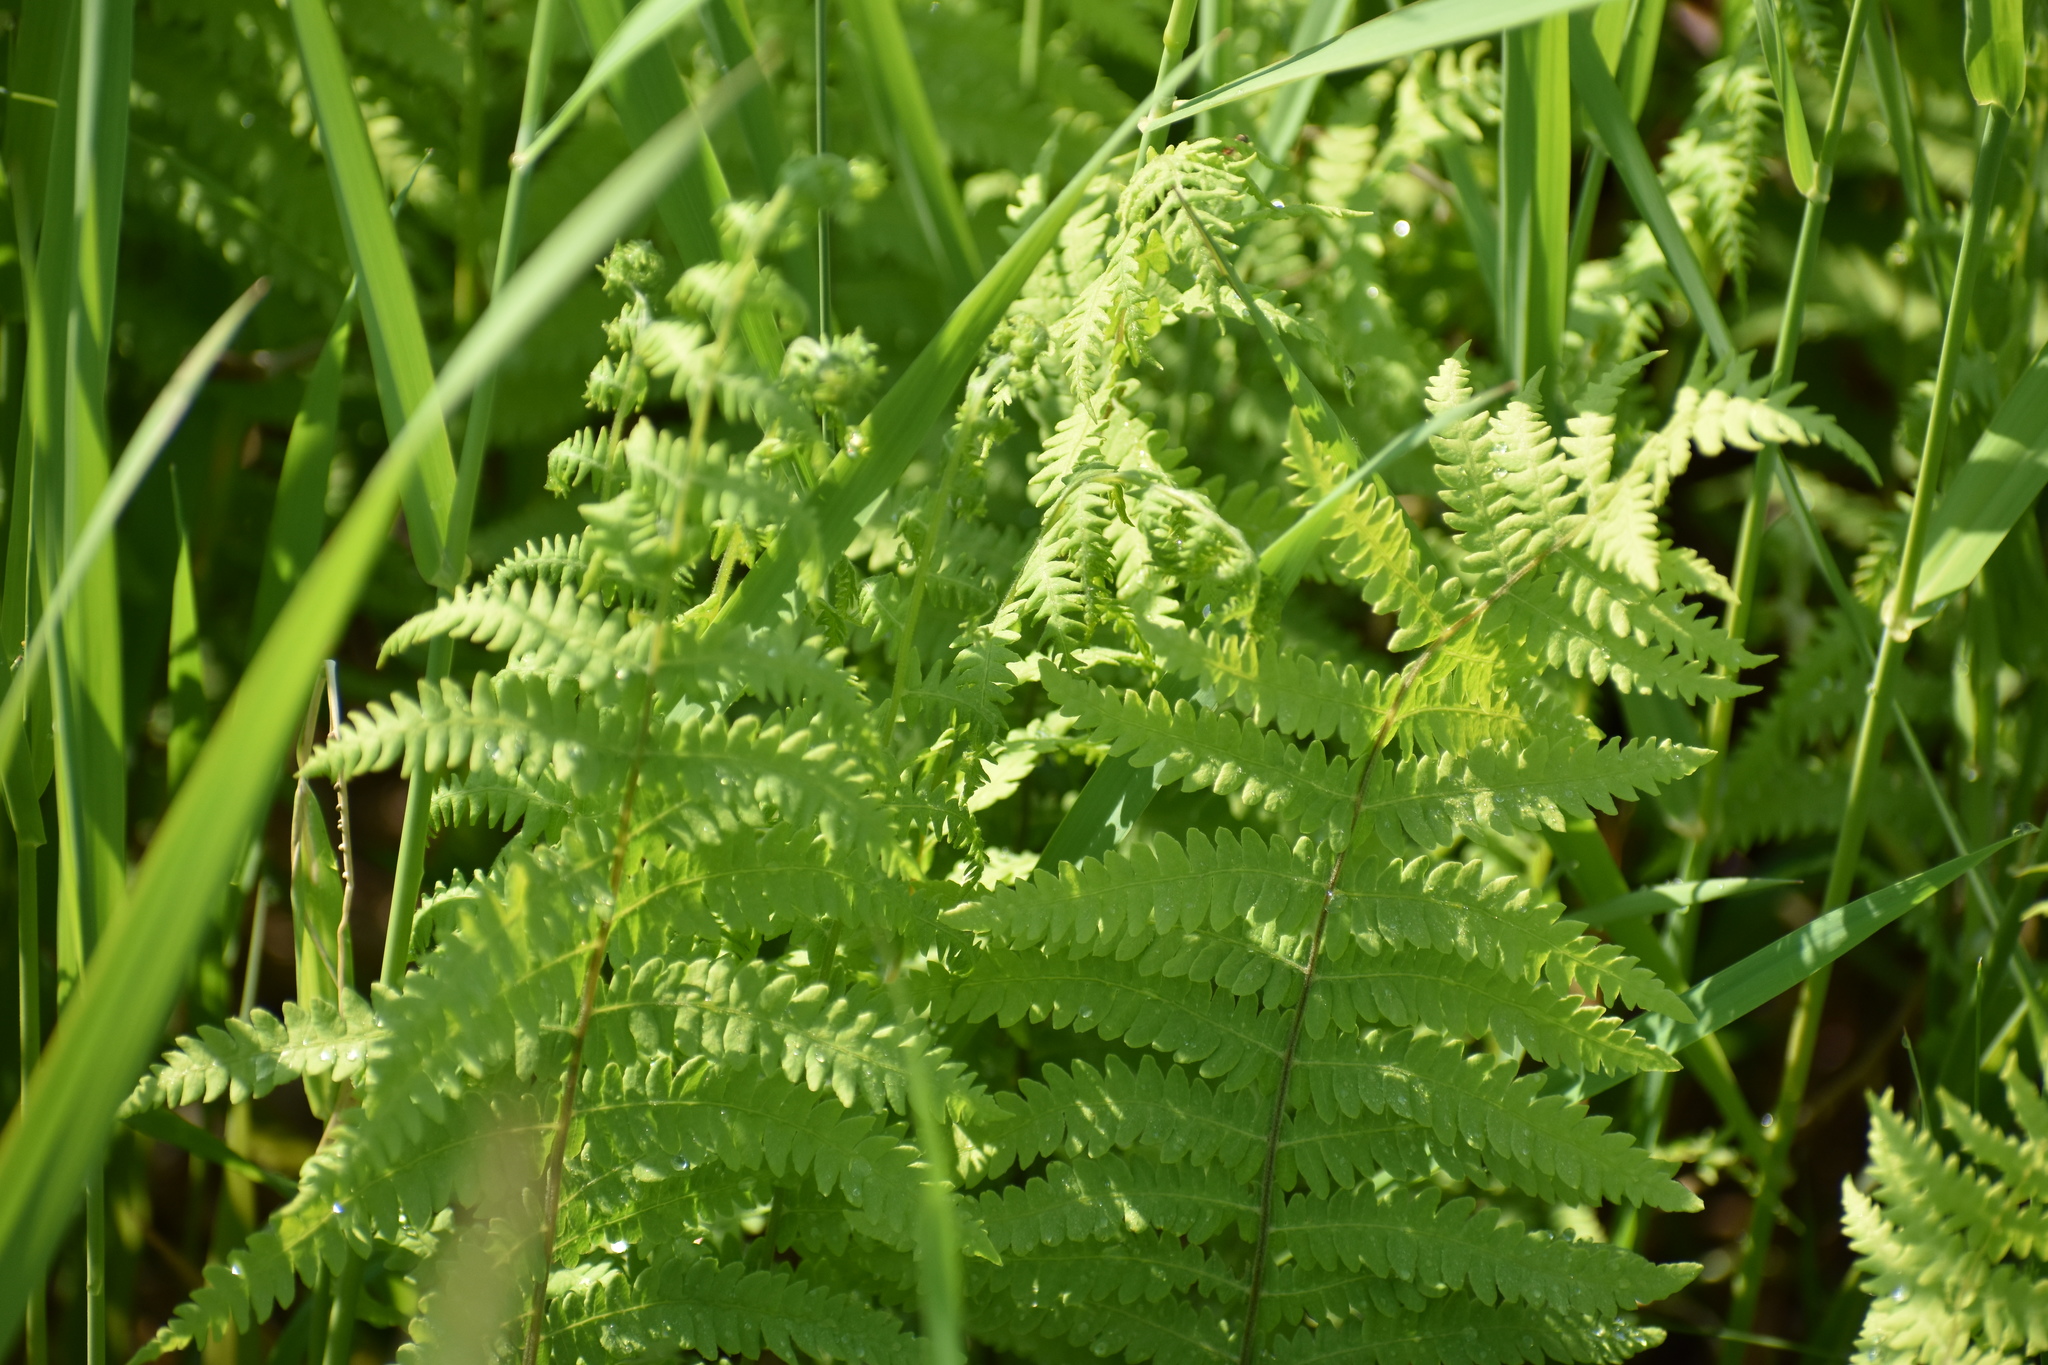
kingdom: Plantae
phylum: Tracheophyta
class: Polypodiopsida
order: Polypodiales
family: Thelypteridaceae
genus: Thelypteris
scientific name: Thelypteris palustris
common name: Marsh fern
